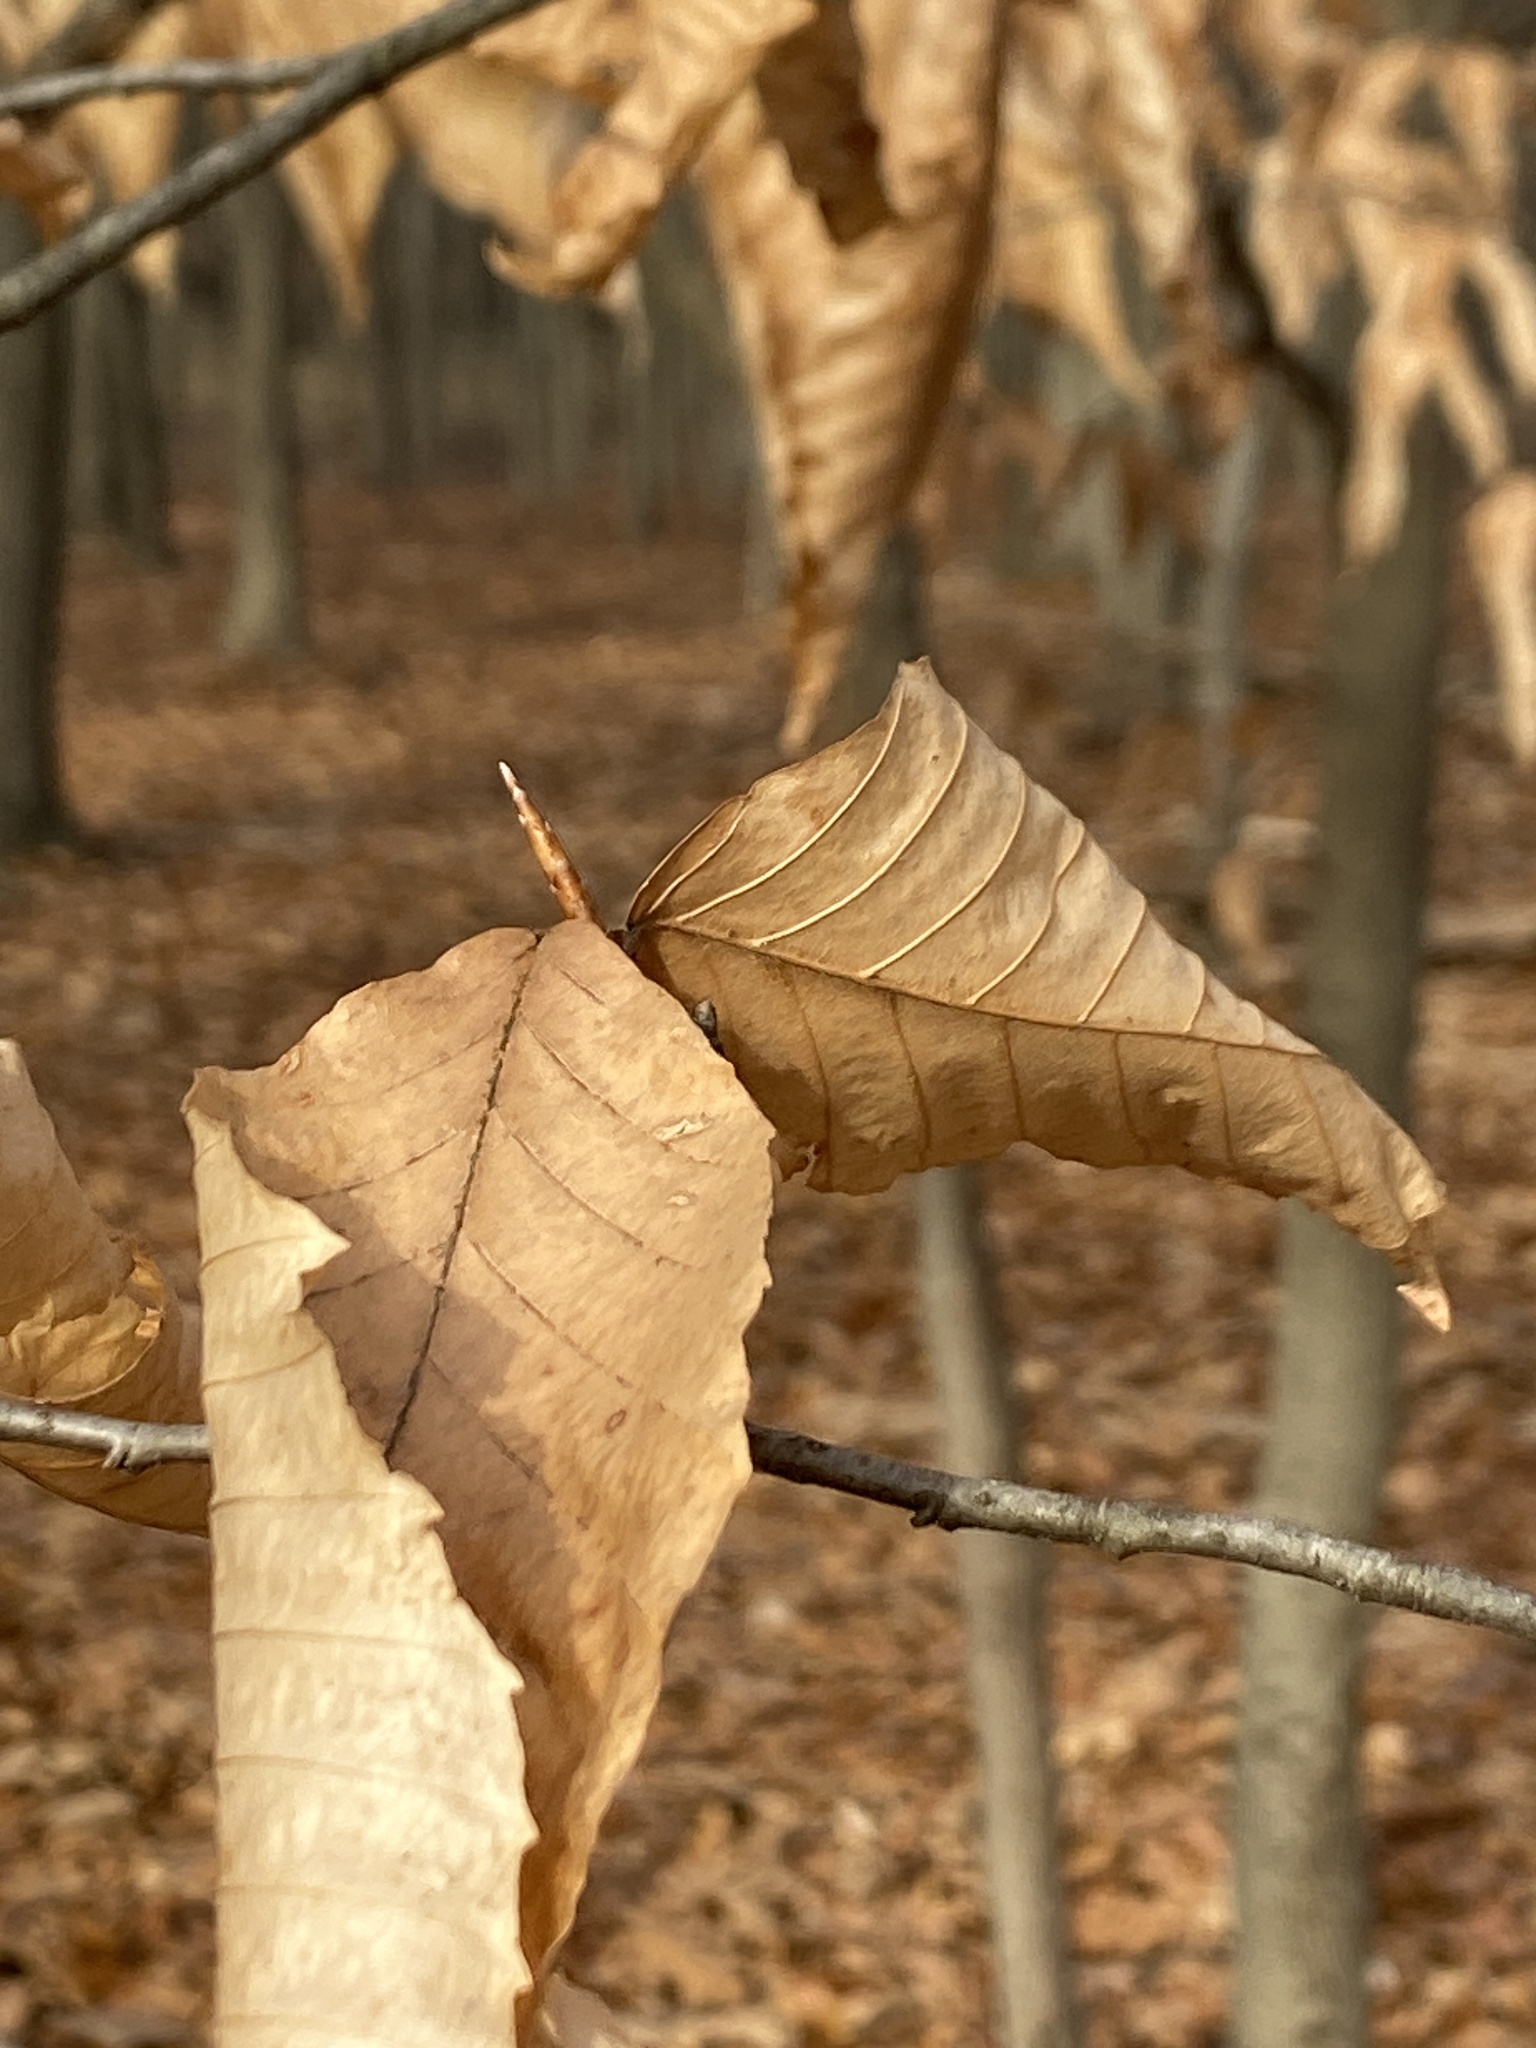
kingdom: Plantae
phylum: Tracheophyta
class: Magnoliopsida
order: Fagales
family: Fagaceae
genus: Fagus
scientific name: Fagus grandifolia
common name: American beech
